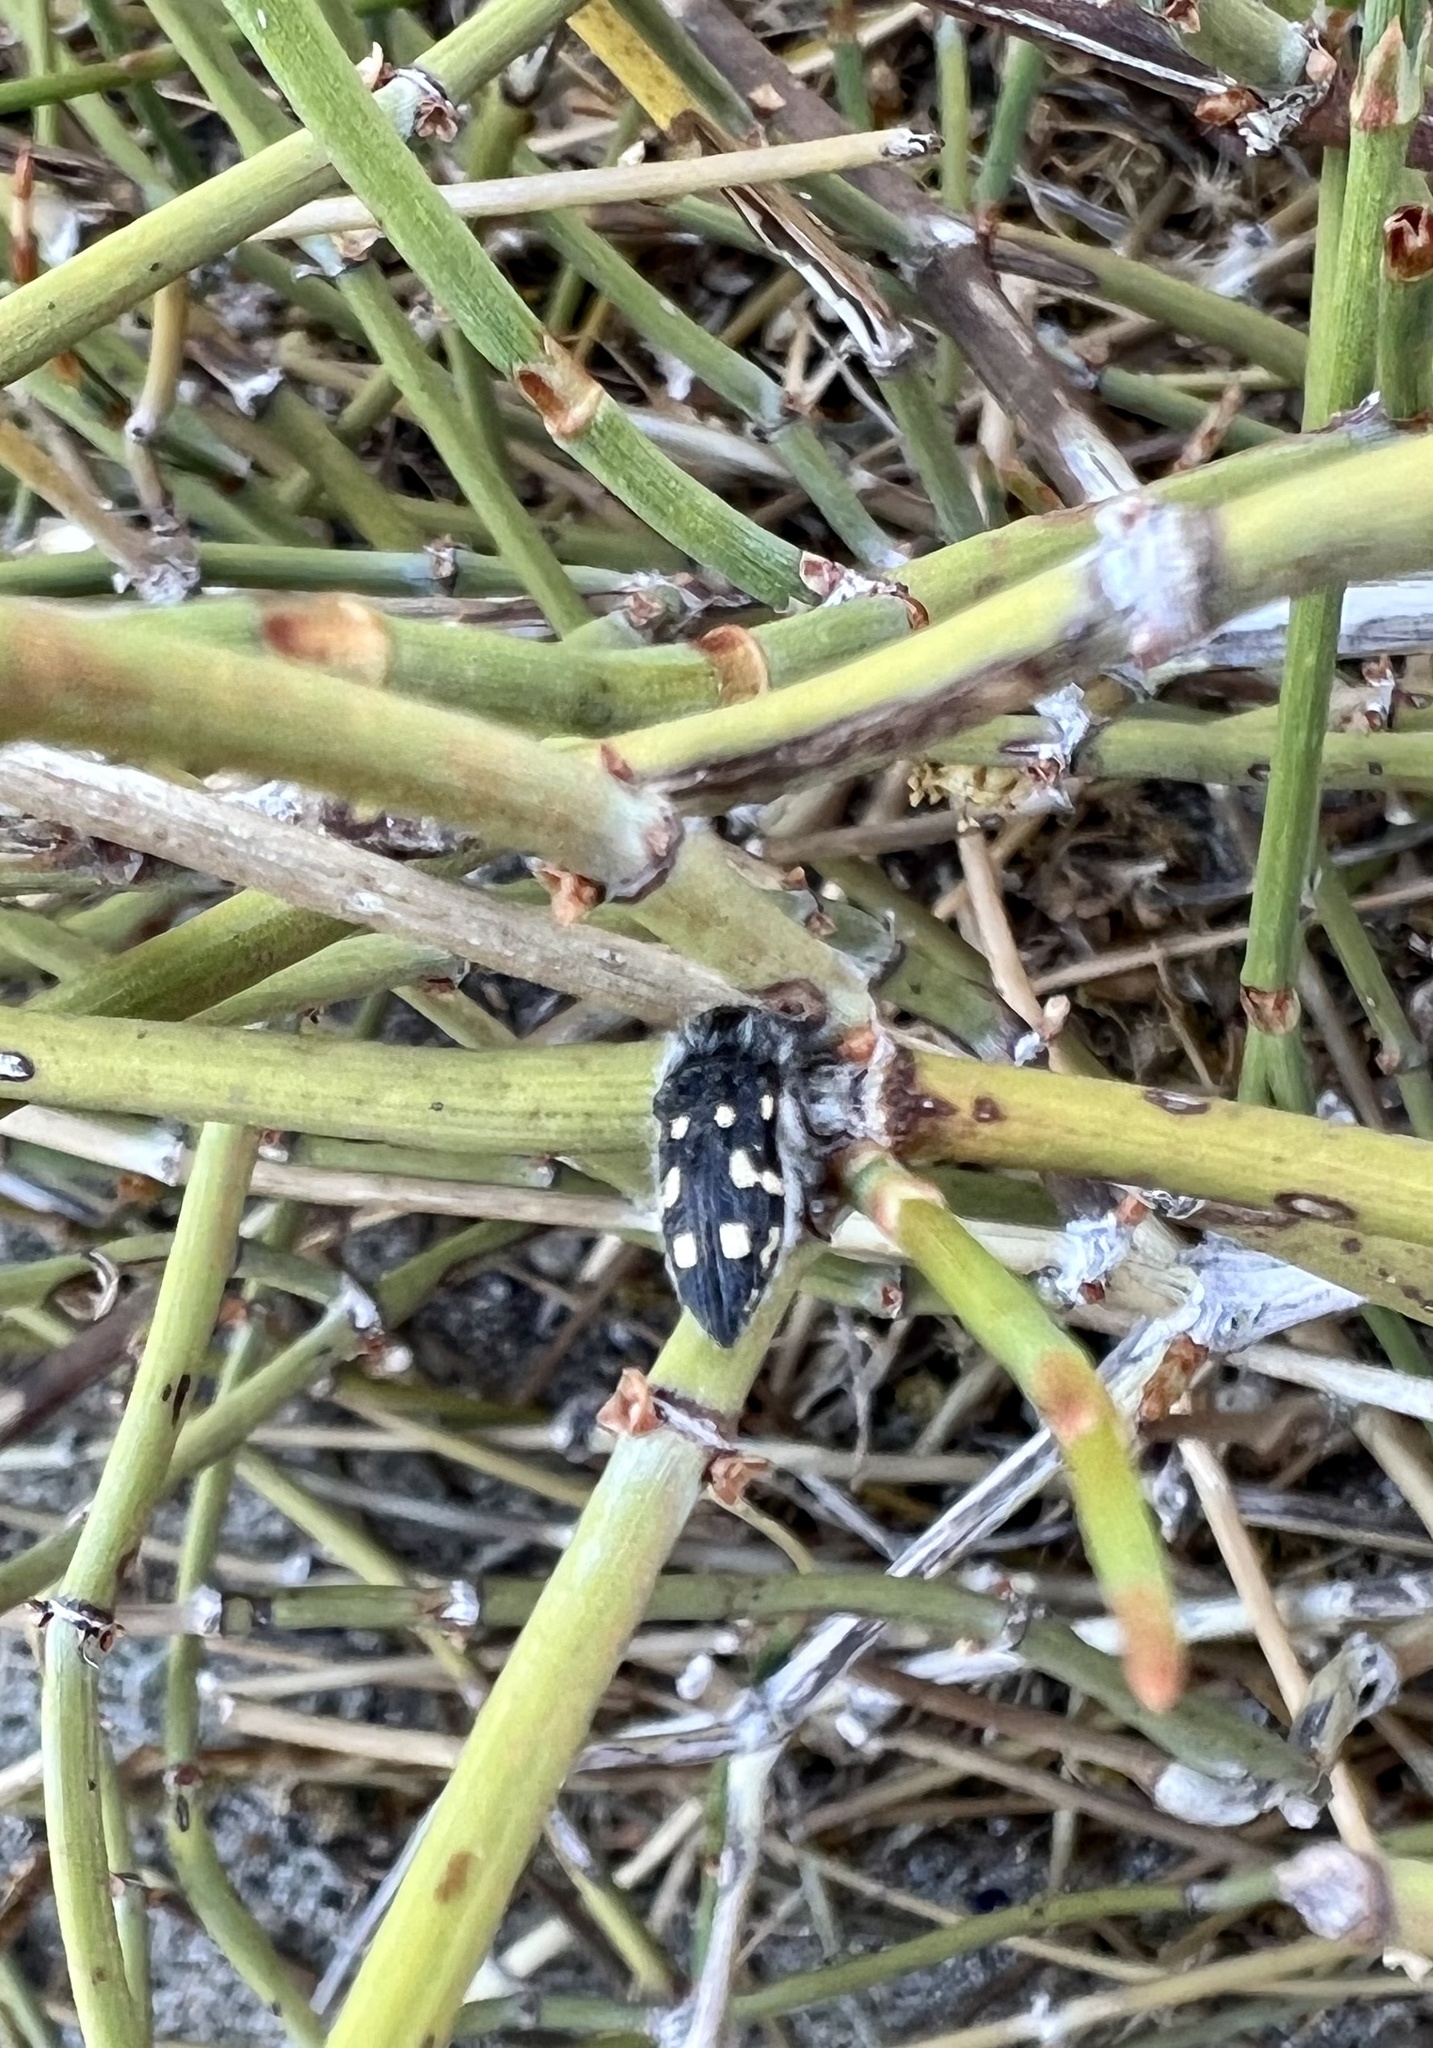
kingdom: Animalia
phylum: Arthropoda
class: Insecta
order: Coleoptera
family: Buprestidae
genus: Acmaeodera
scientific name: Acmaeodera verityi
